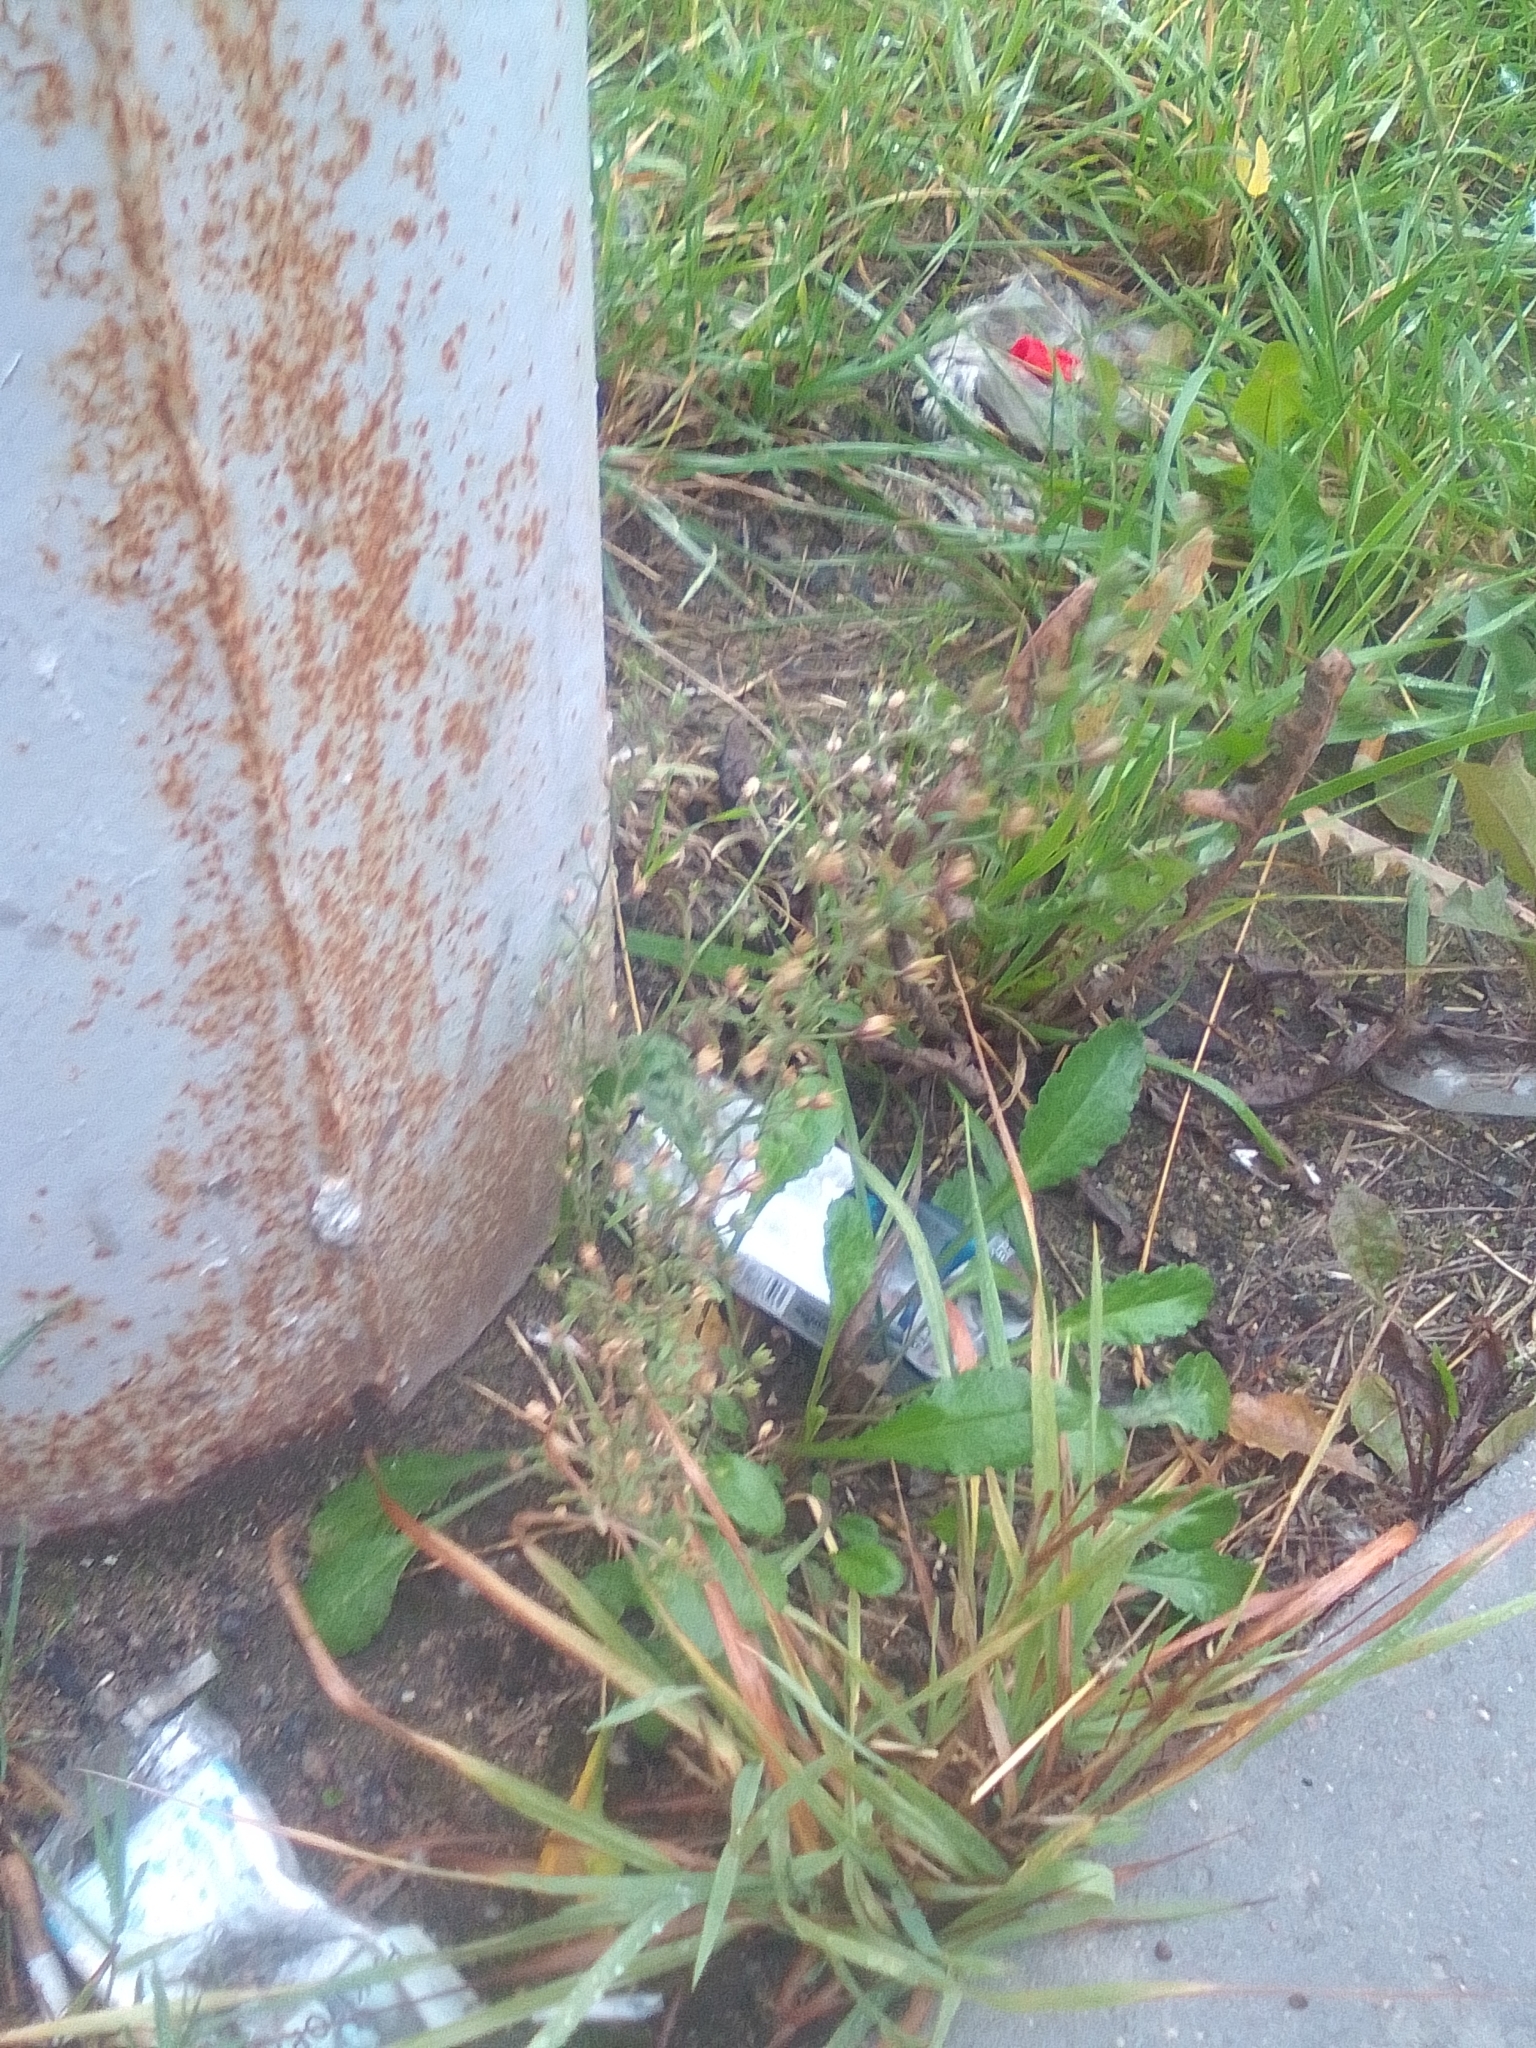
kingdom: Plantae
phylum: Tracheophyta
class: Magnoliopsida
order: Lamiales
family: Plantaginaceae
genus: Chaenorhinum
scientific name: Chaenorhinum minus
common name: Dwarf snapdragon
